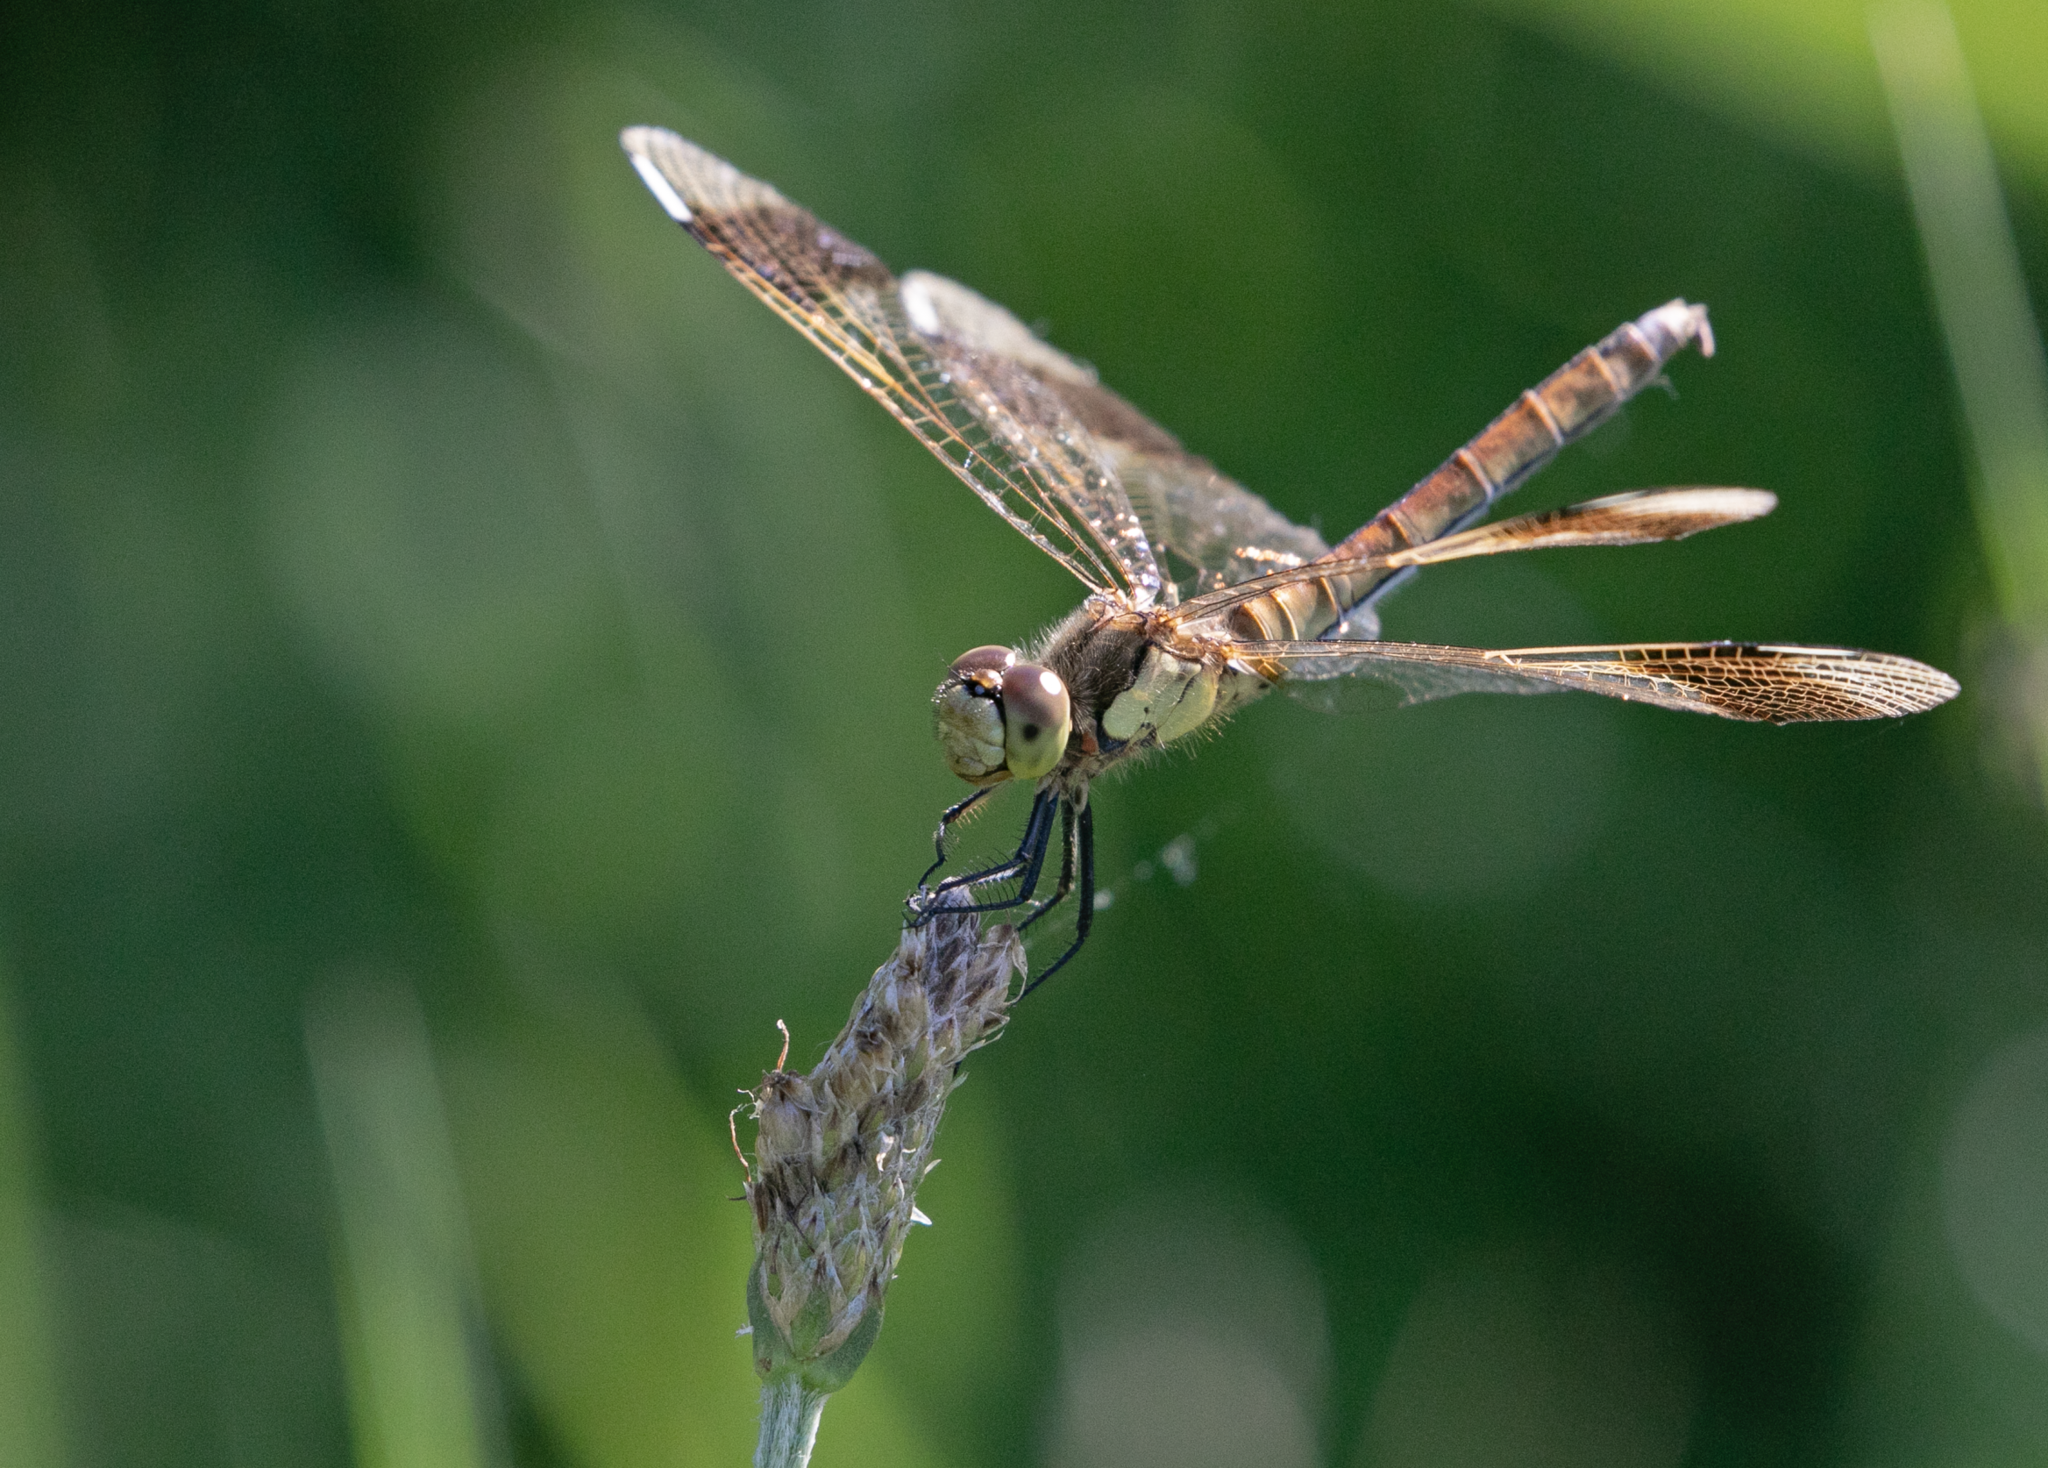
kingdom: Animalia
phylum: Arthropoda
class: Insecta
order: Odonata
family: Libellulidae
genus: Sympetrum
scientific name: Sympetrum pedemontanum
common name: Banded darter
